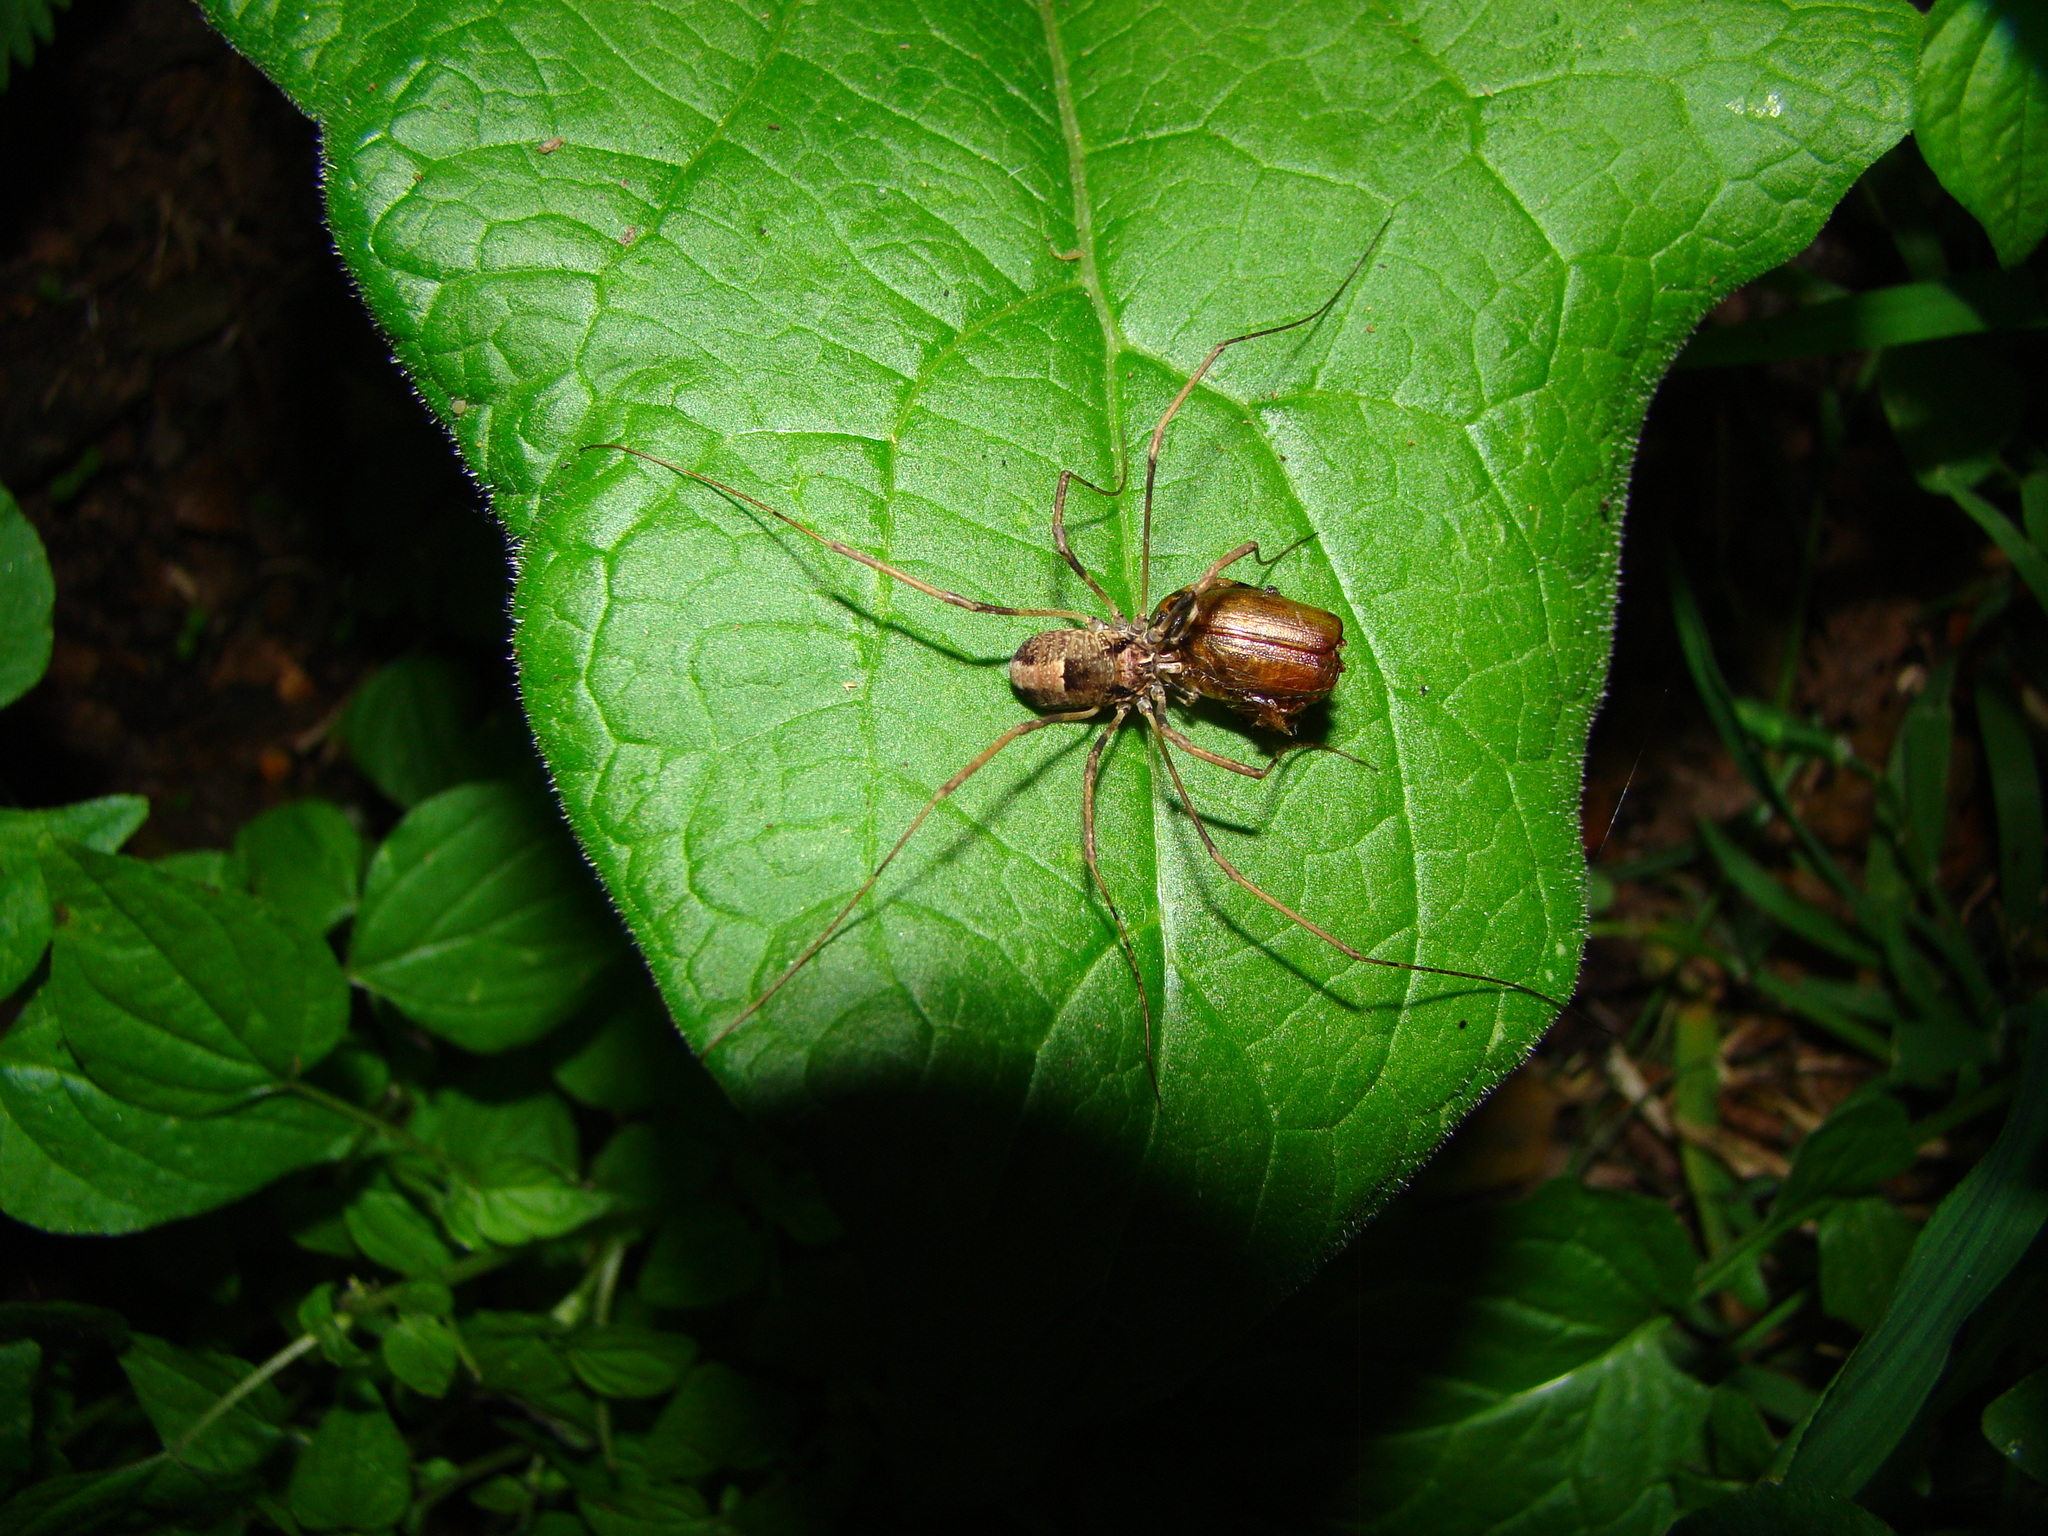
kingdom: Animalia
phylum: Arthropoda
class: Insecta
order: Coleoptera
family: Scarabaeidae
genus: Costelytra
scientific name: Costelytra
